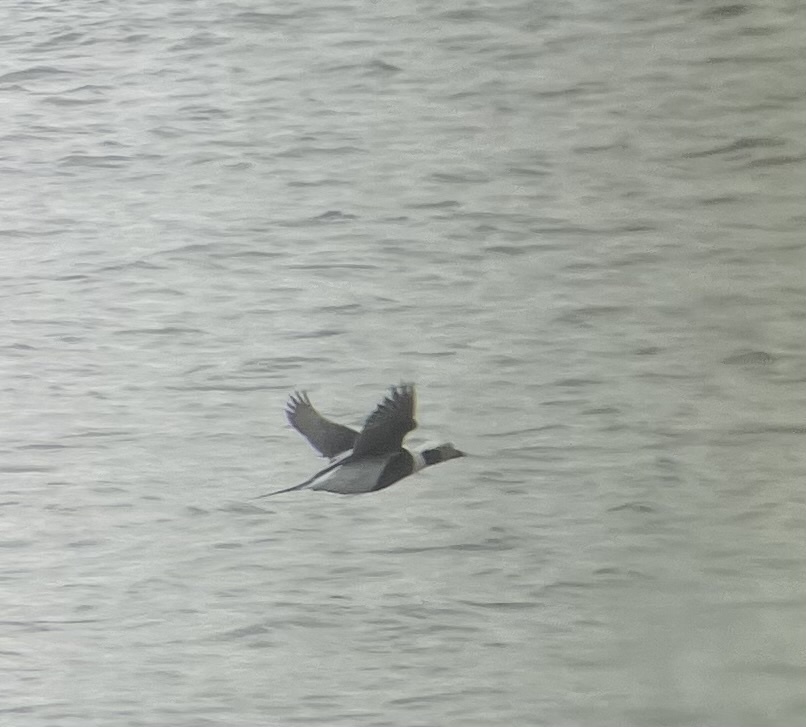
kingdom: Animalia
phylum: Chordata
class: Aves
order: Anseriformes
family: Anatidae
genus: Clangula
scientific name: Clangula hyemalis
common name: Long-tailed duck
